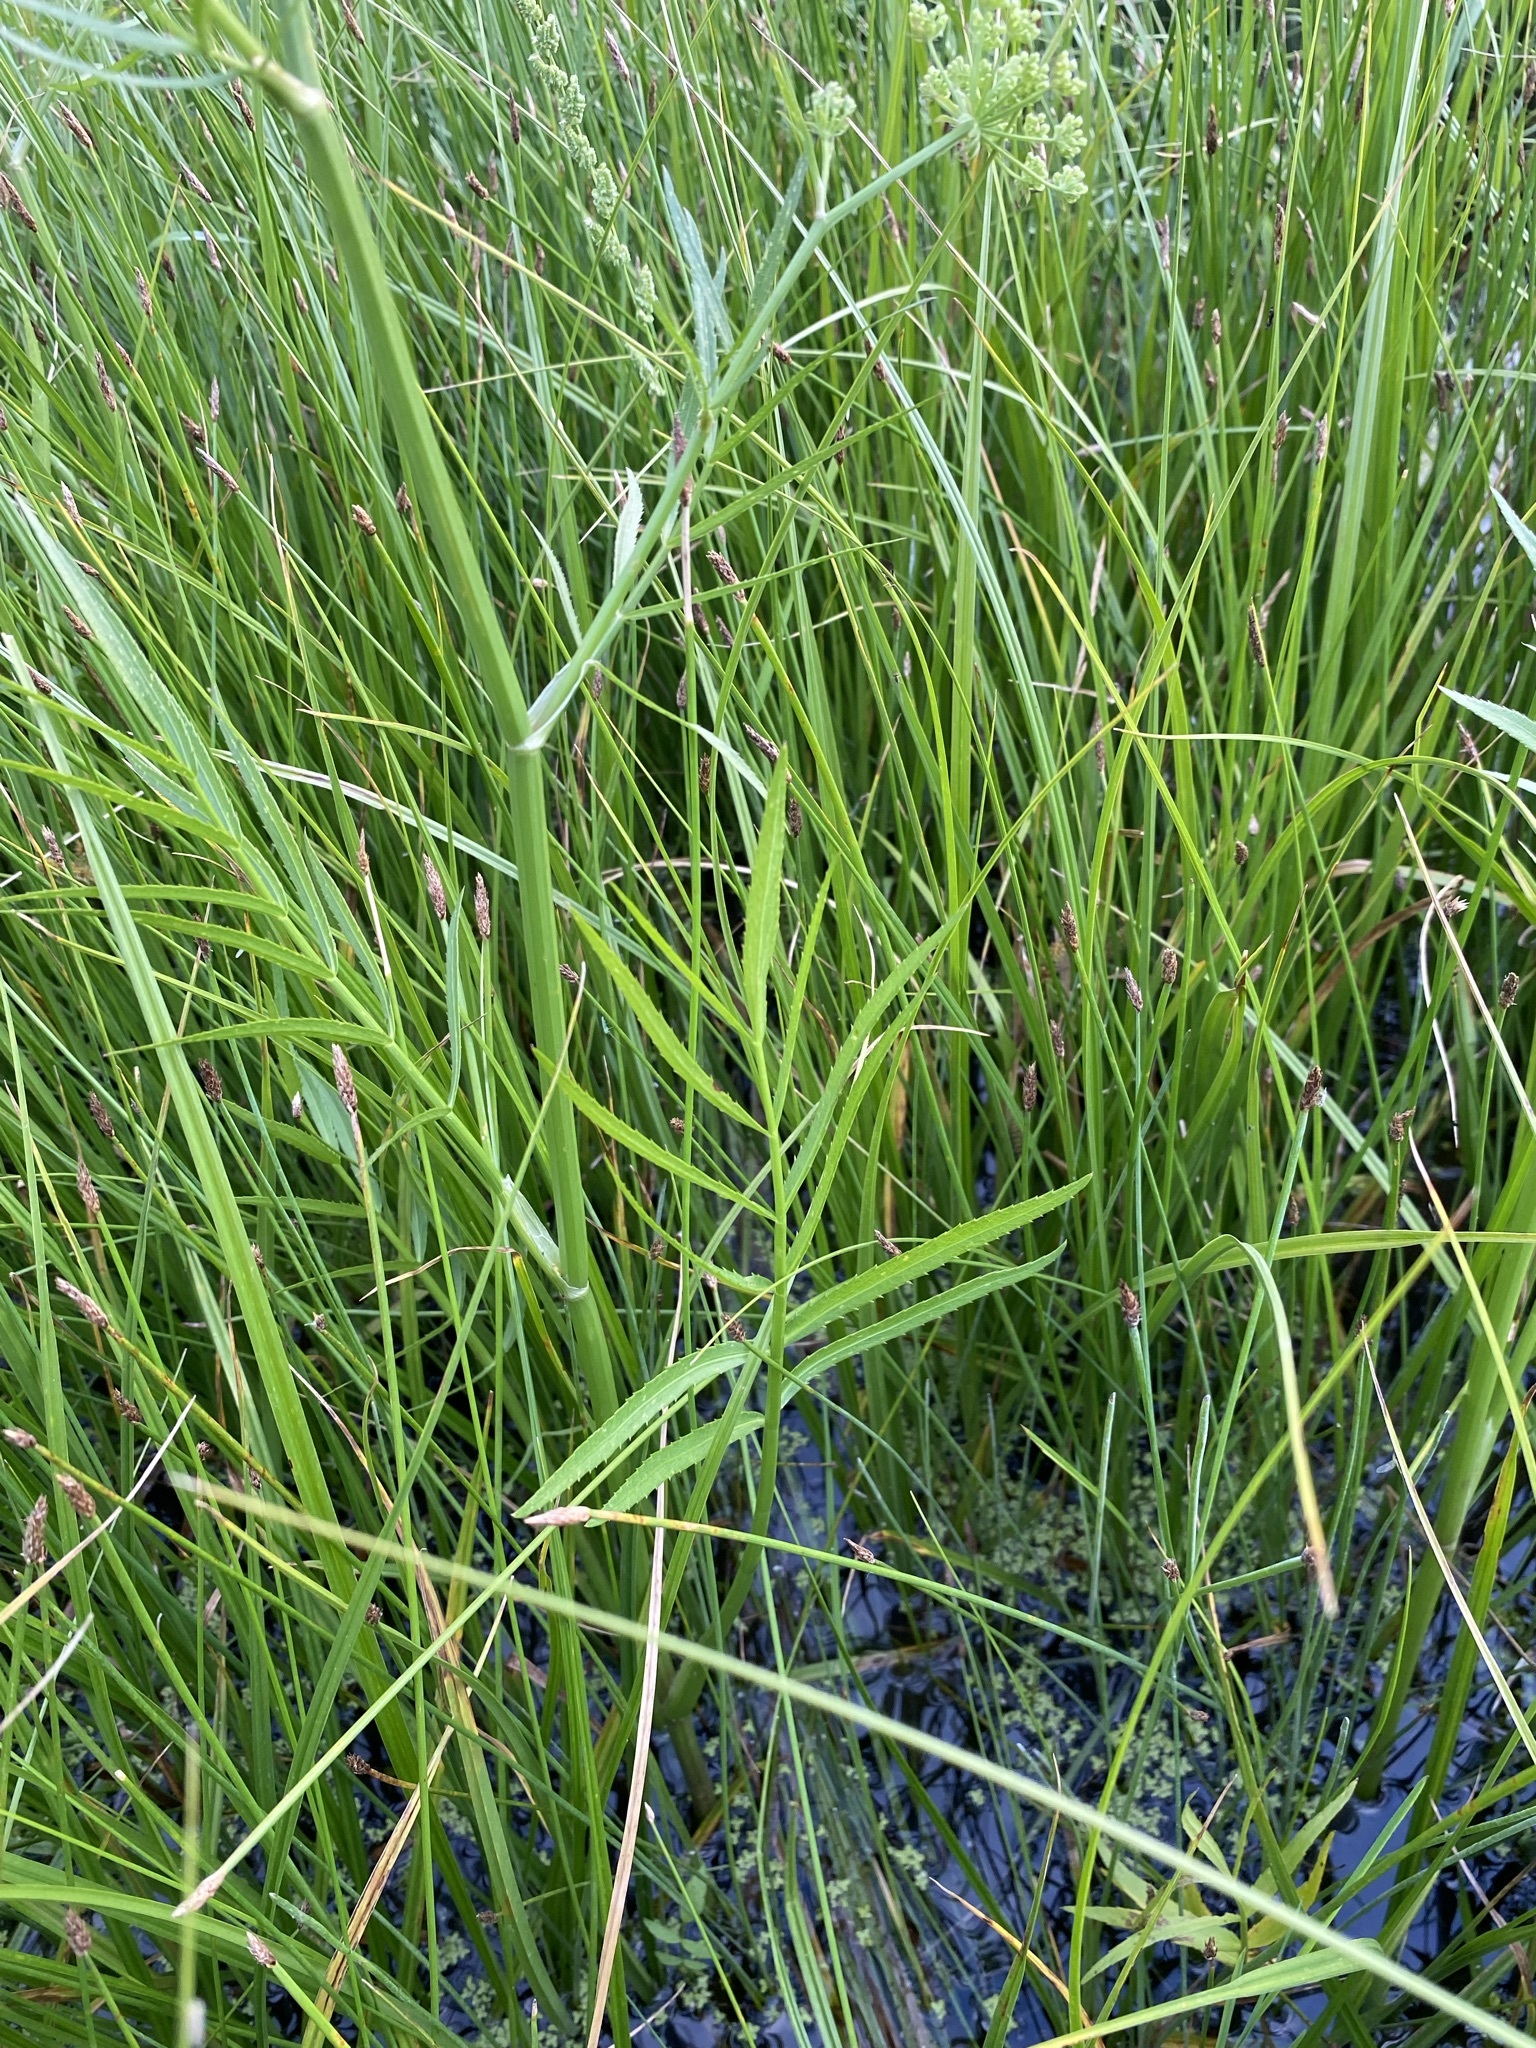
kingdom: Plantae
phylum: Tracheophyta
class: Magnoliopsida
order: Apiales
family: Apiaceae
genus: Sium
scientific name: Sium suave
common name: Hemlock water-parsnip
